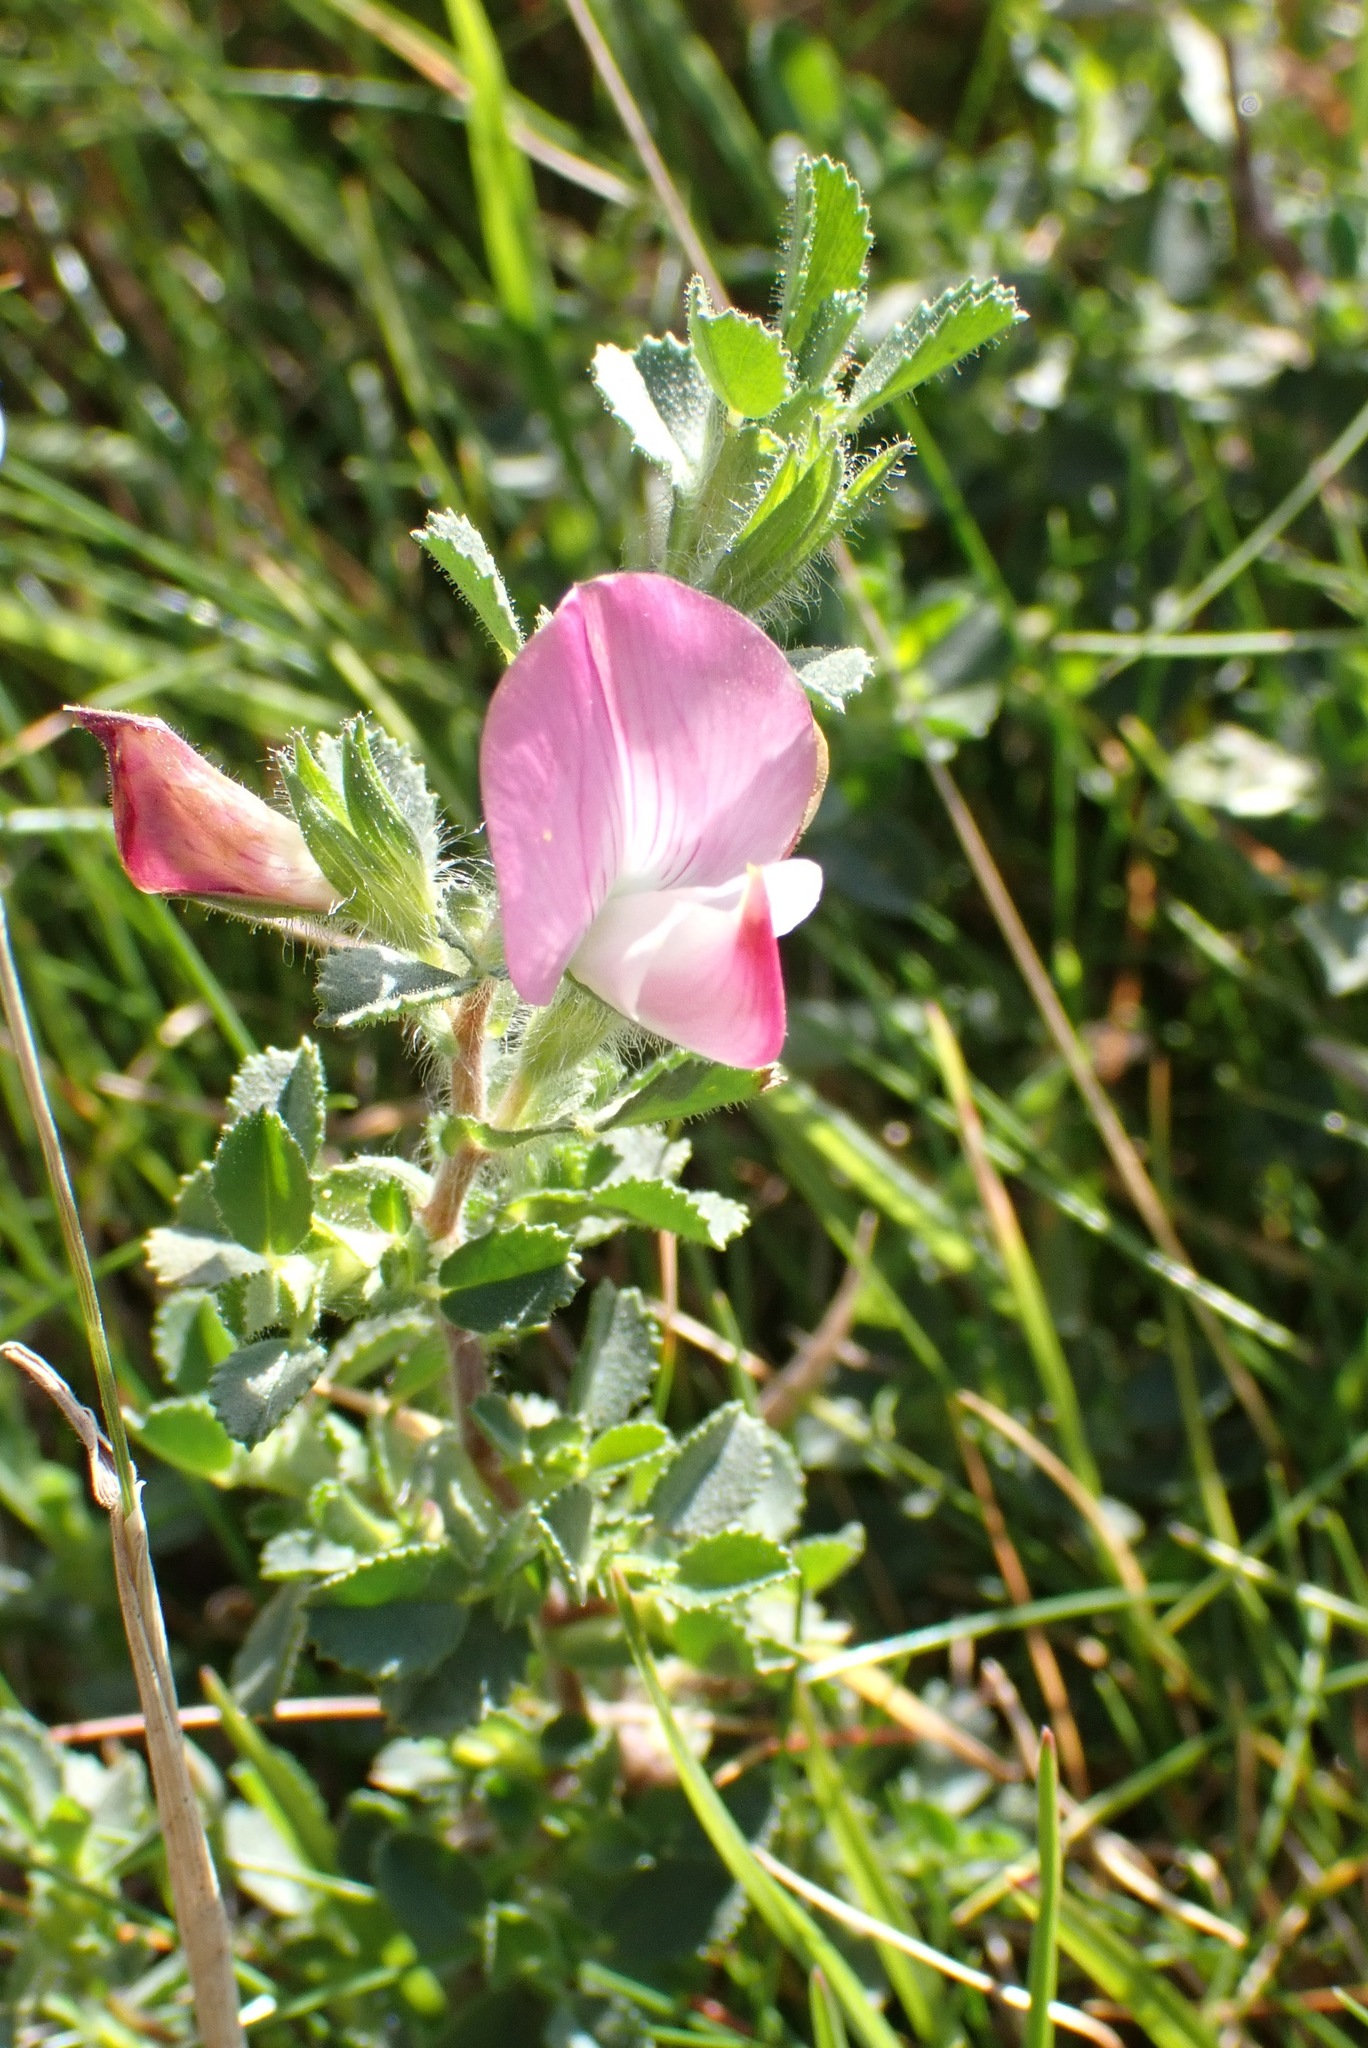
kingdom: Plantae
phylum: Tracheophyta
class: Magnoliopsida
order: Fabales
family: Fabaceae
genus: Ononis
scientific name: Ononis spinosa
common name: Spiny restharrow
